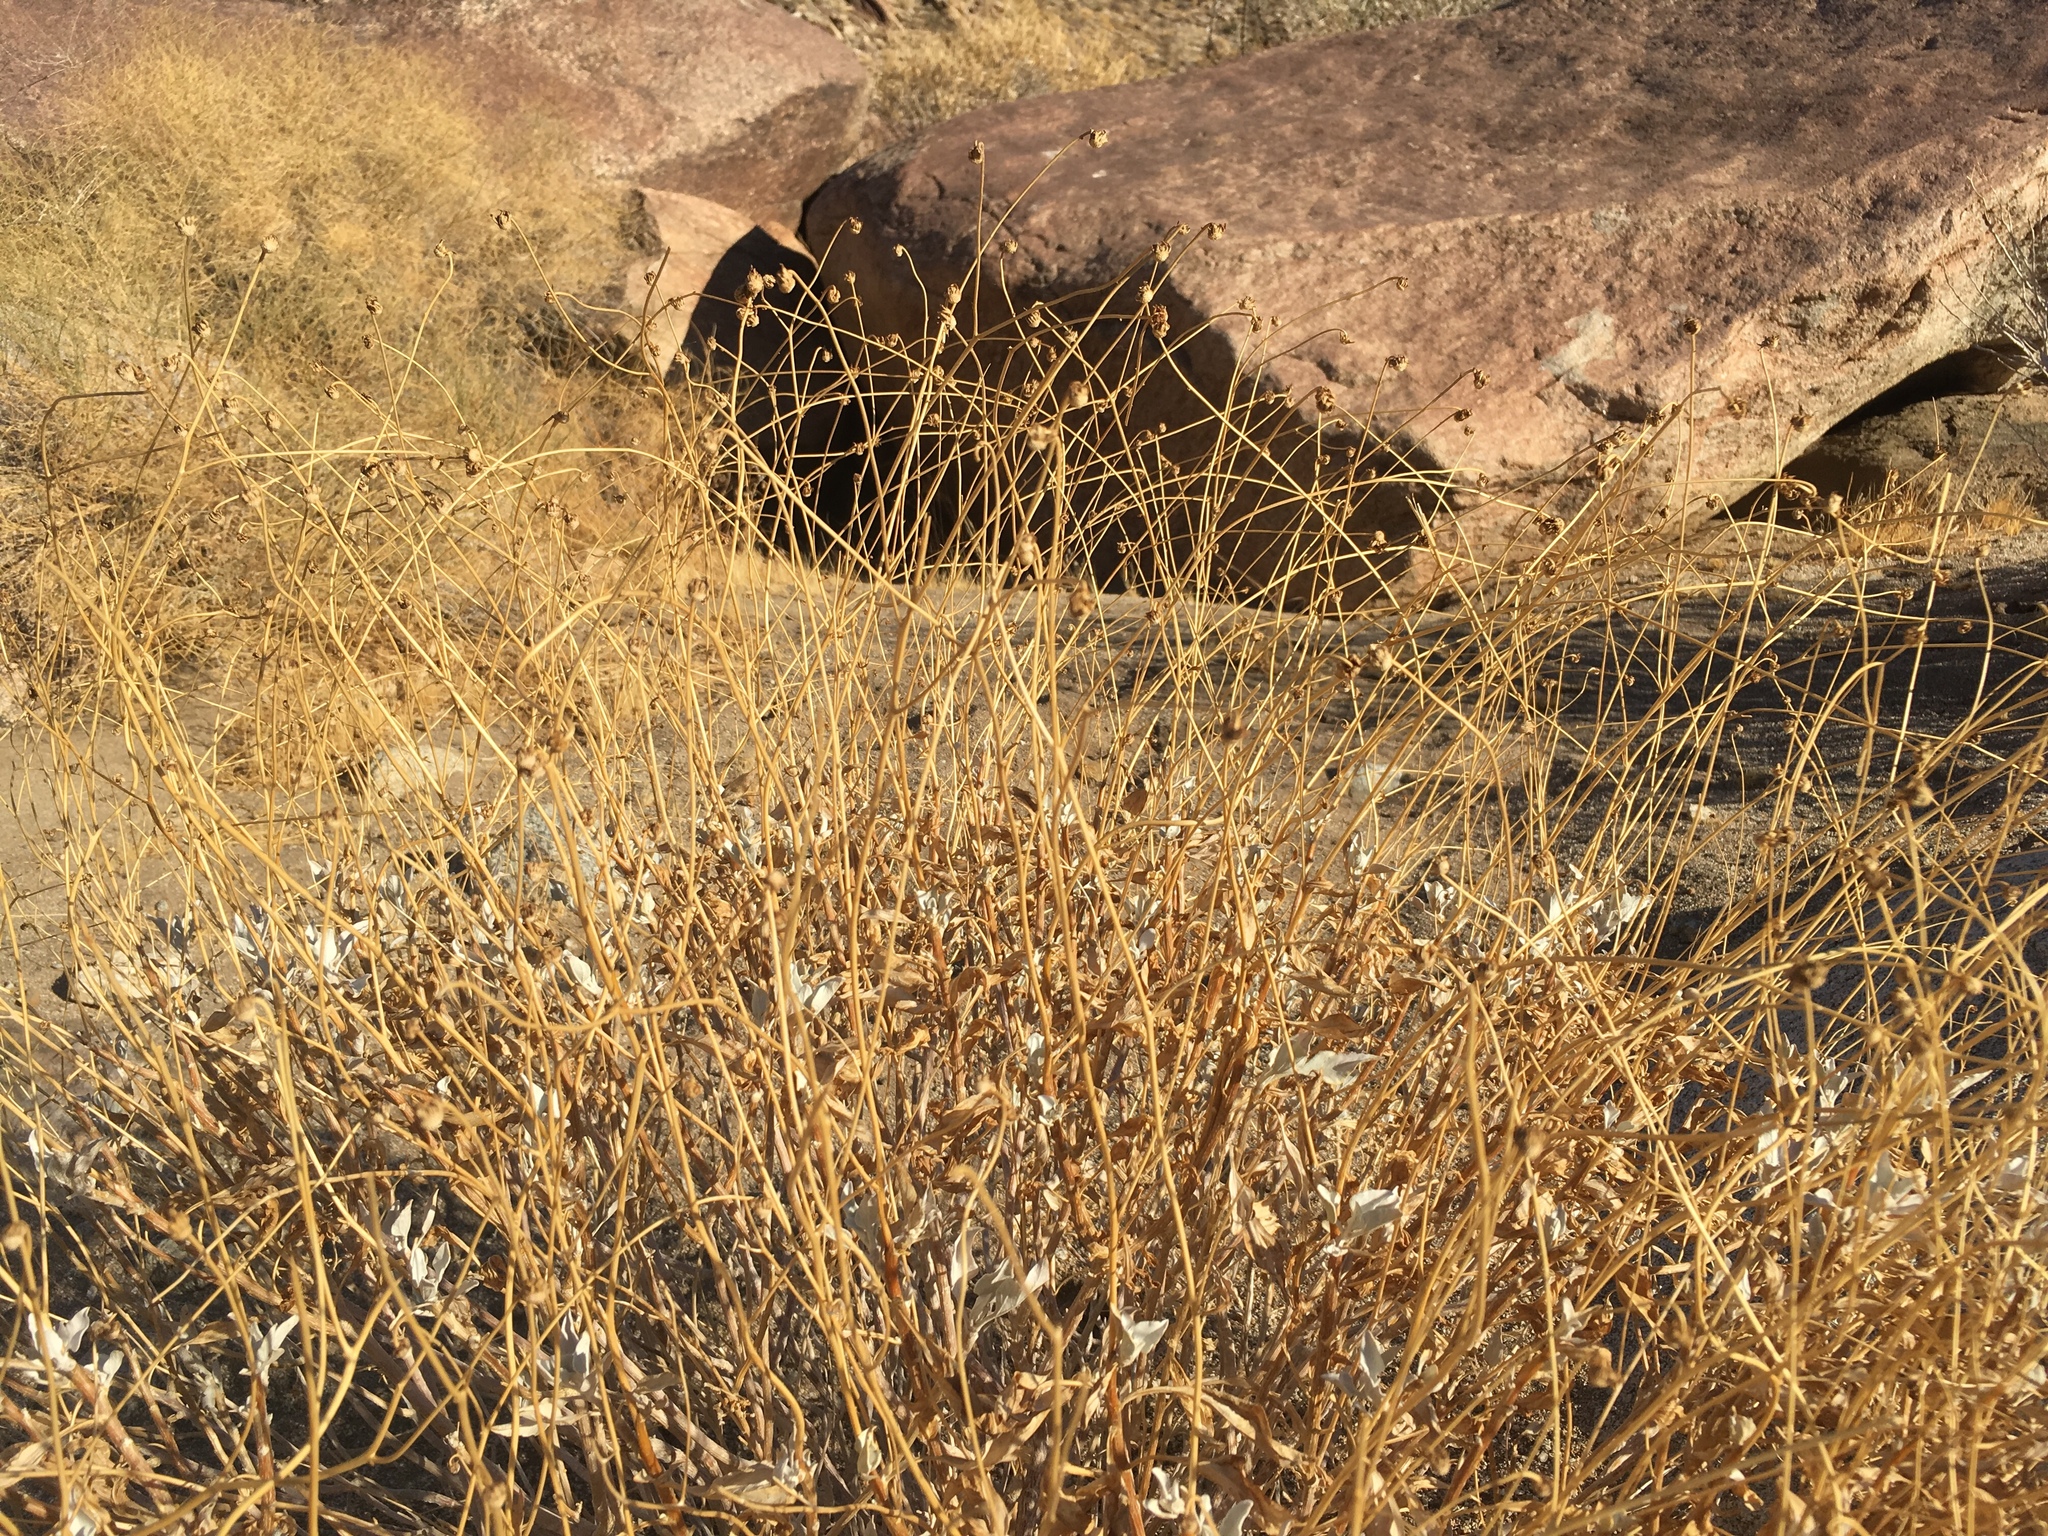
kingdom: Plantae
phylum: Tracheophyta
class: Magnoliopsida
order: Asterales
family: Asteraceae
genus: Encelia
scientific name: Encelia farinosa
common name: Brittlebush
